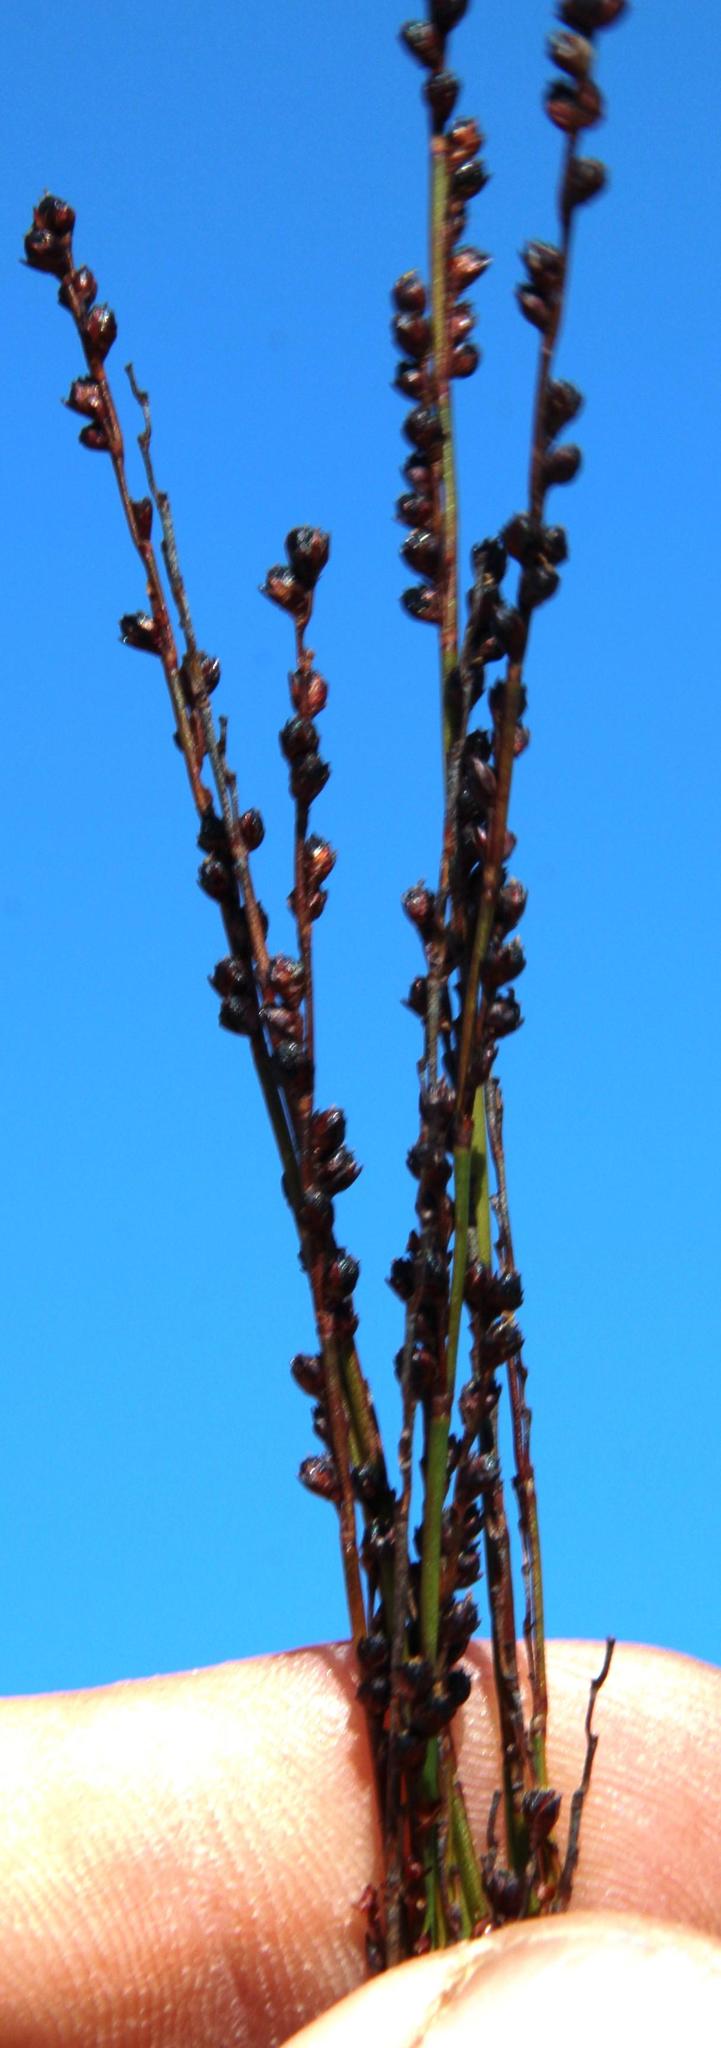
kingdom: Plantae
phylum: Tracheophyta
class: Liliopsida
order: Poales
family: Restionaceae
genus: Elegia
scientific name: Elegia recta
